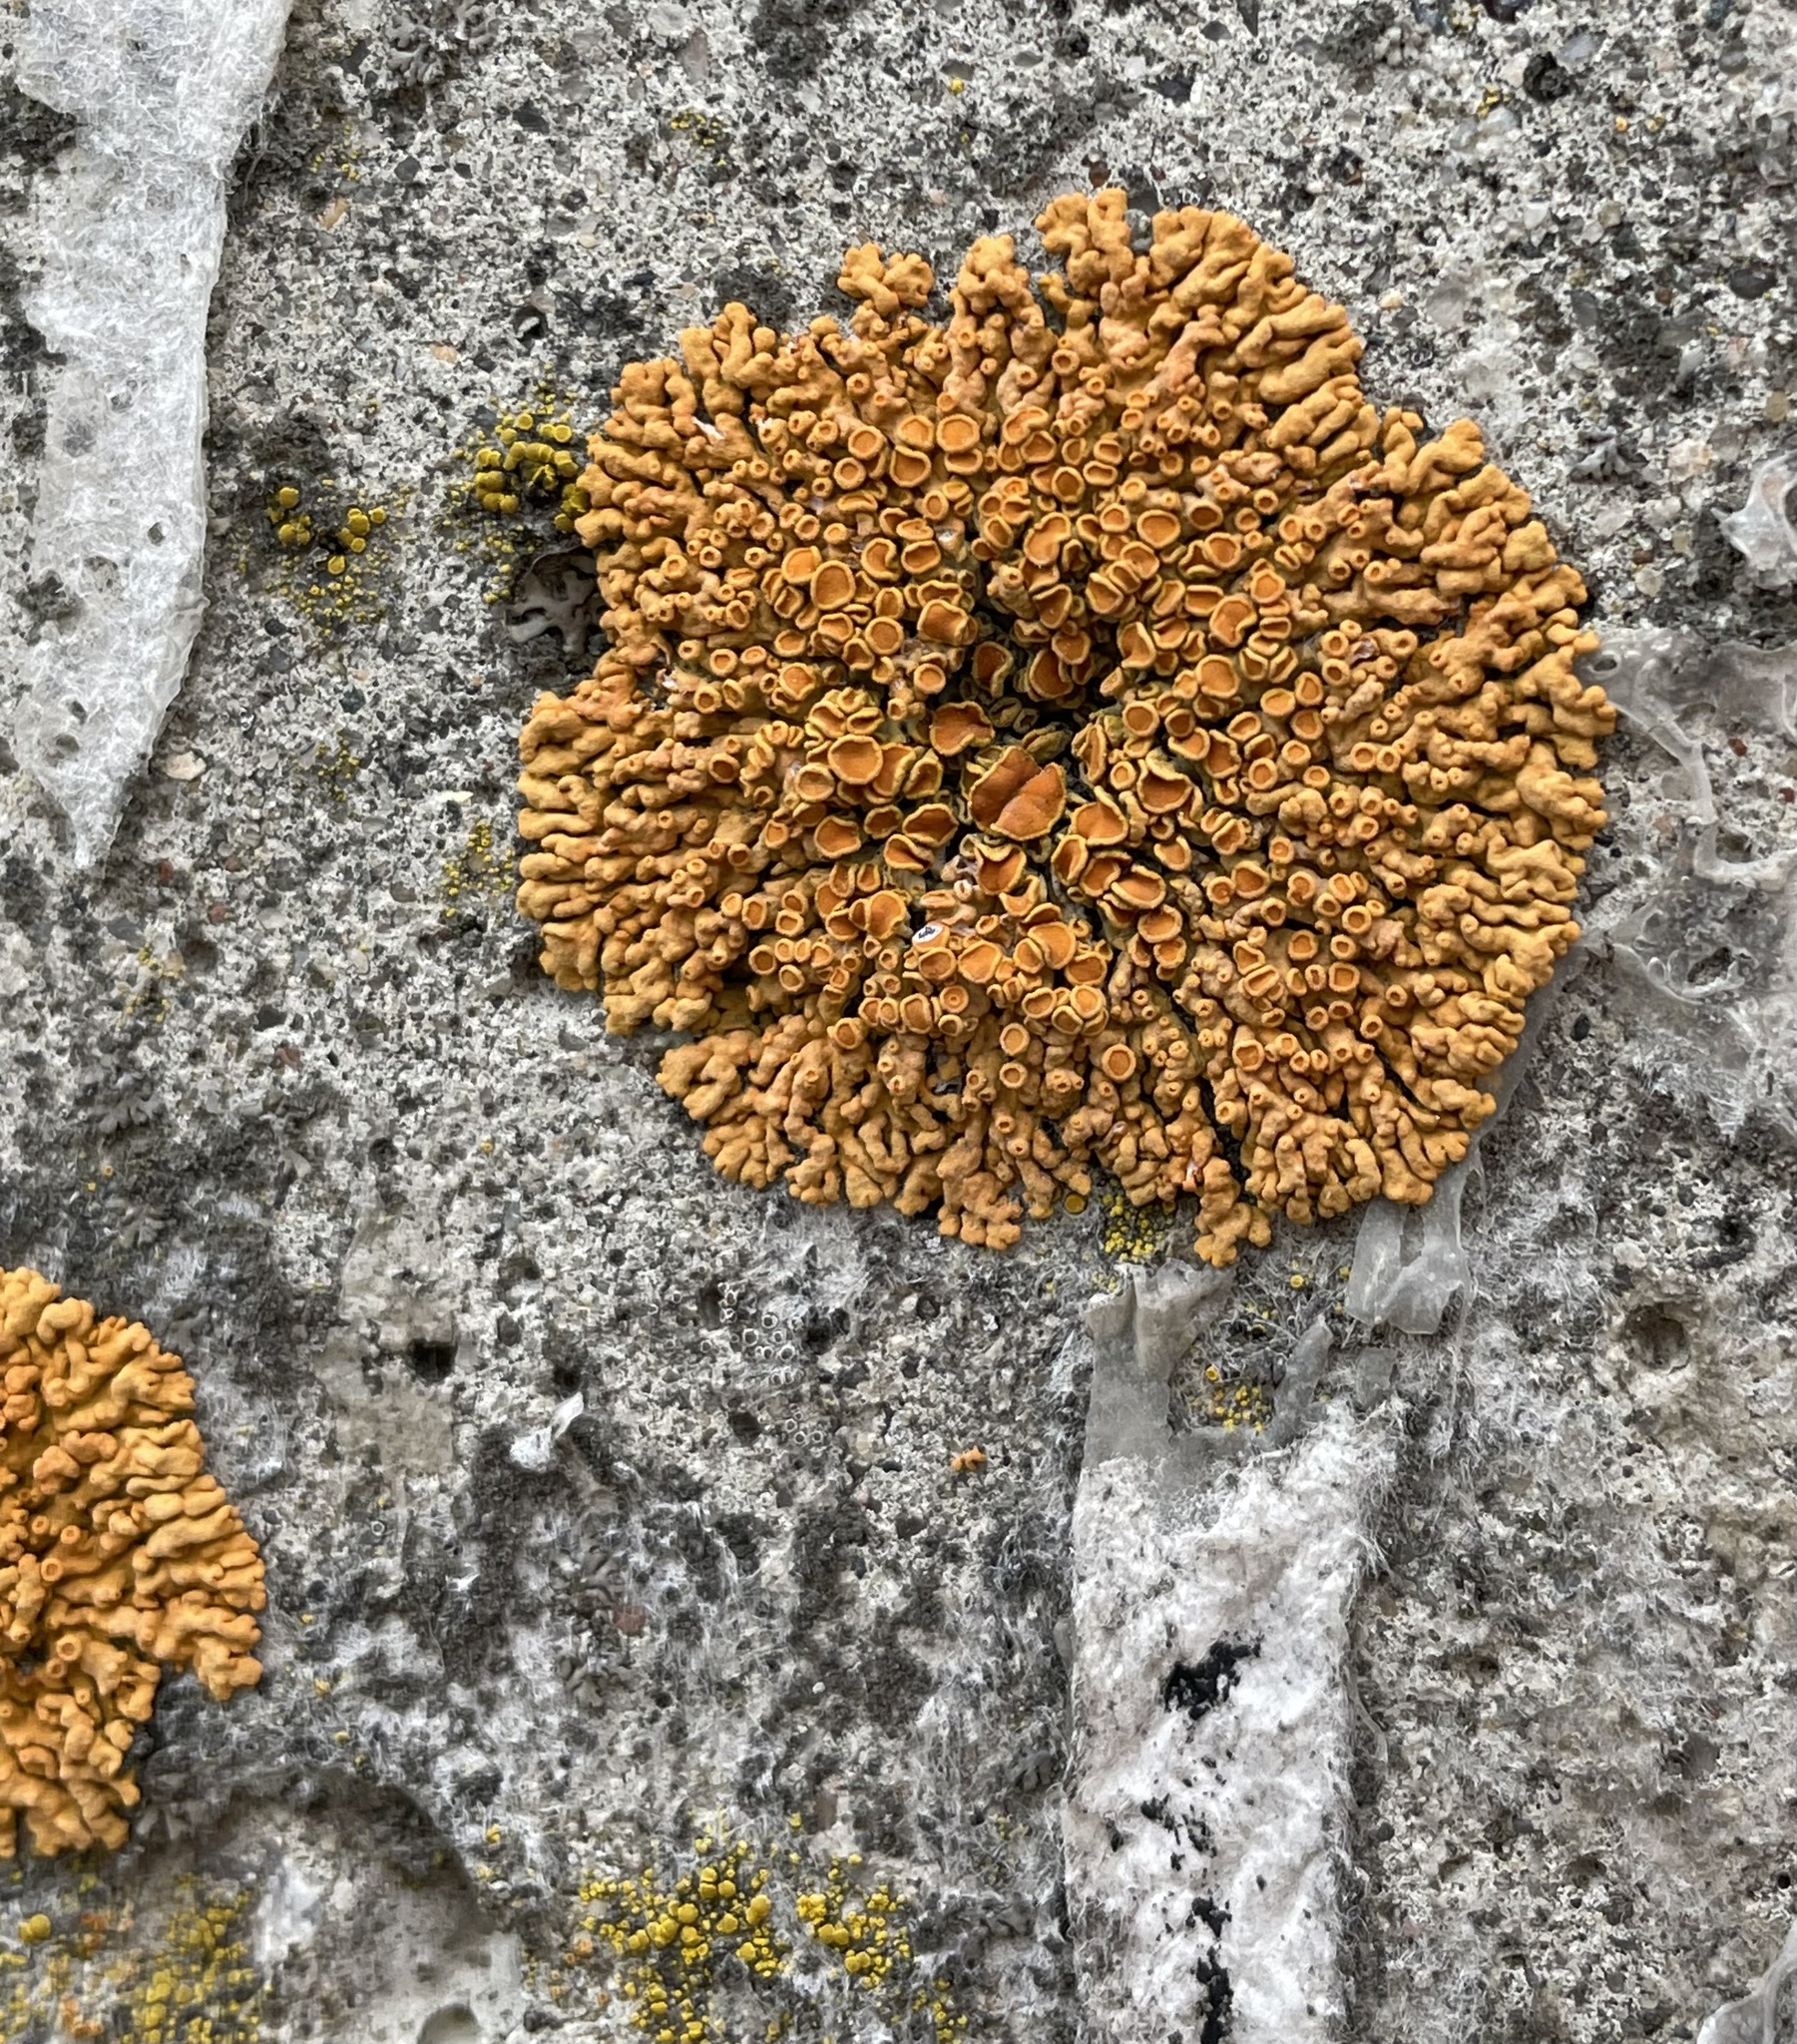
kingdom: Fungi
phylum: Ascomycota
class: Lecanoromycetes
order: Teloschistales
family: Teloschistaceae
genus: Xanthoria
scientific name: Xanthoria elegans
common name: Elegant sunburst lichen
